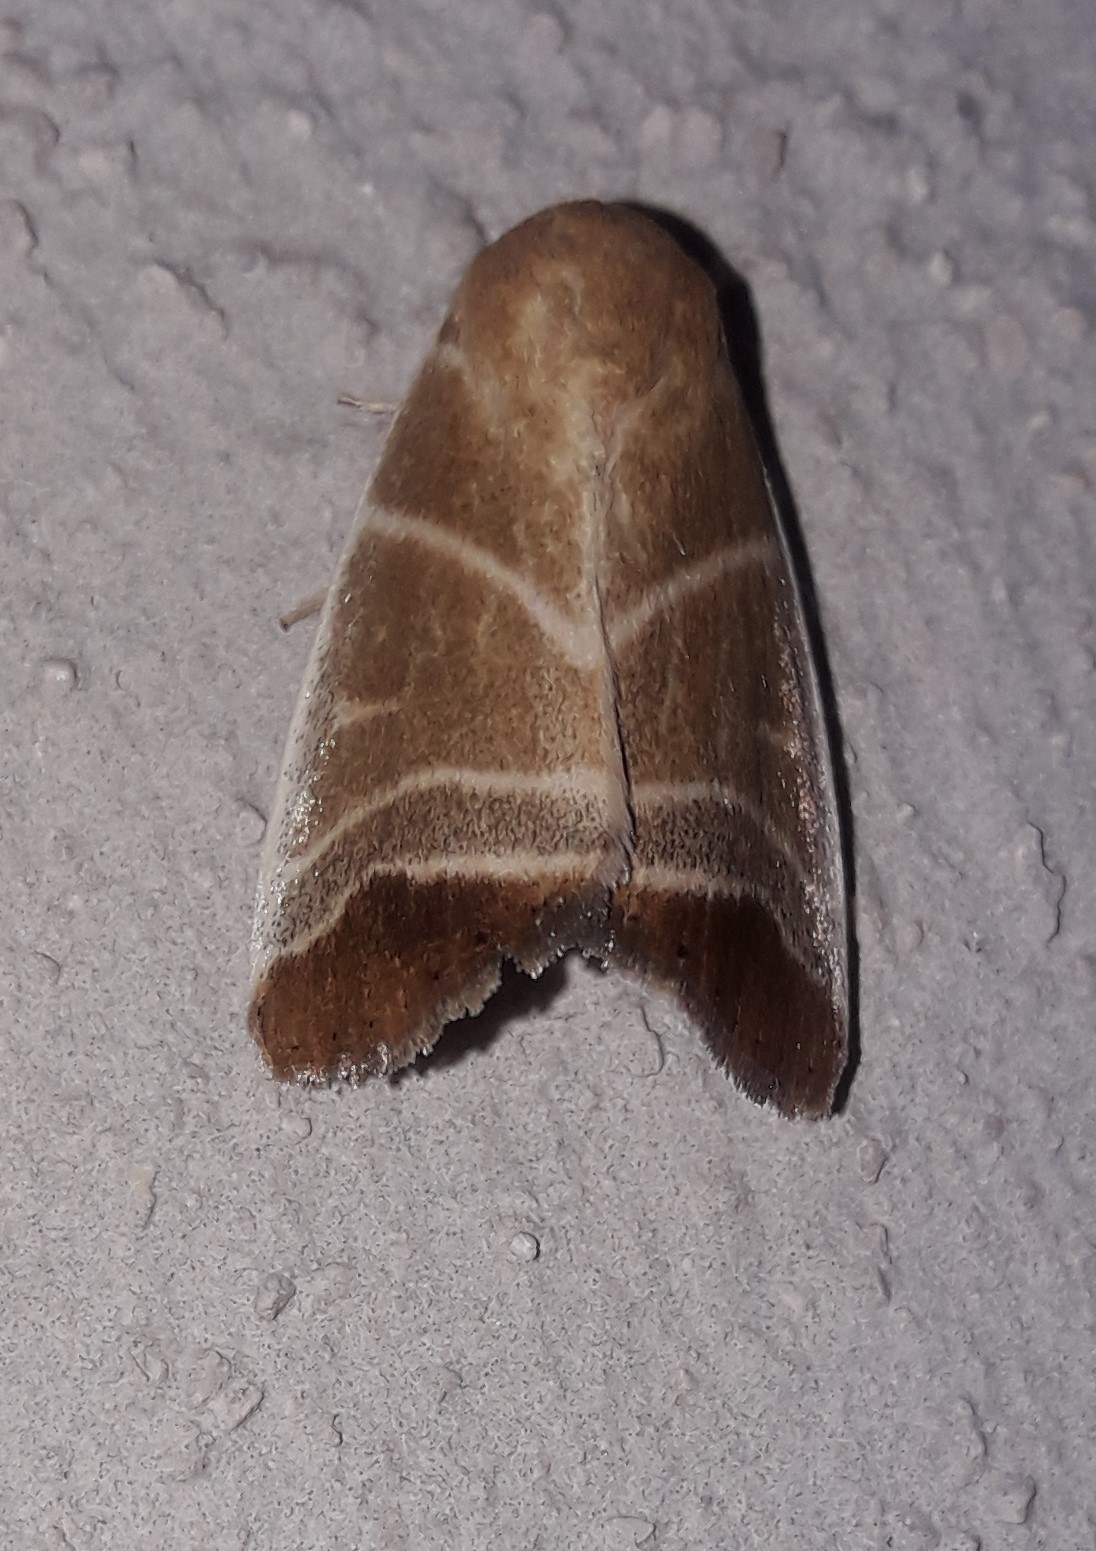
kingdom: Animalia
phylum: Arthropoda
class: Insecta
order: Lepidoptera
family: Noctuidae
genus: Bagisara
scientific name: Bagisara albicosta
